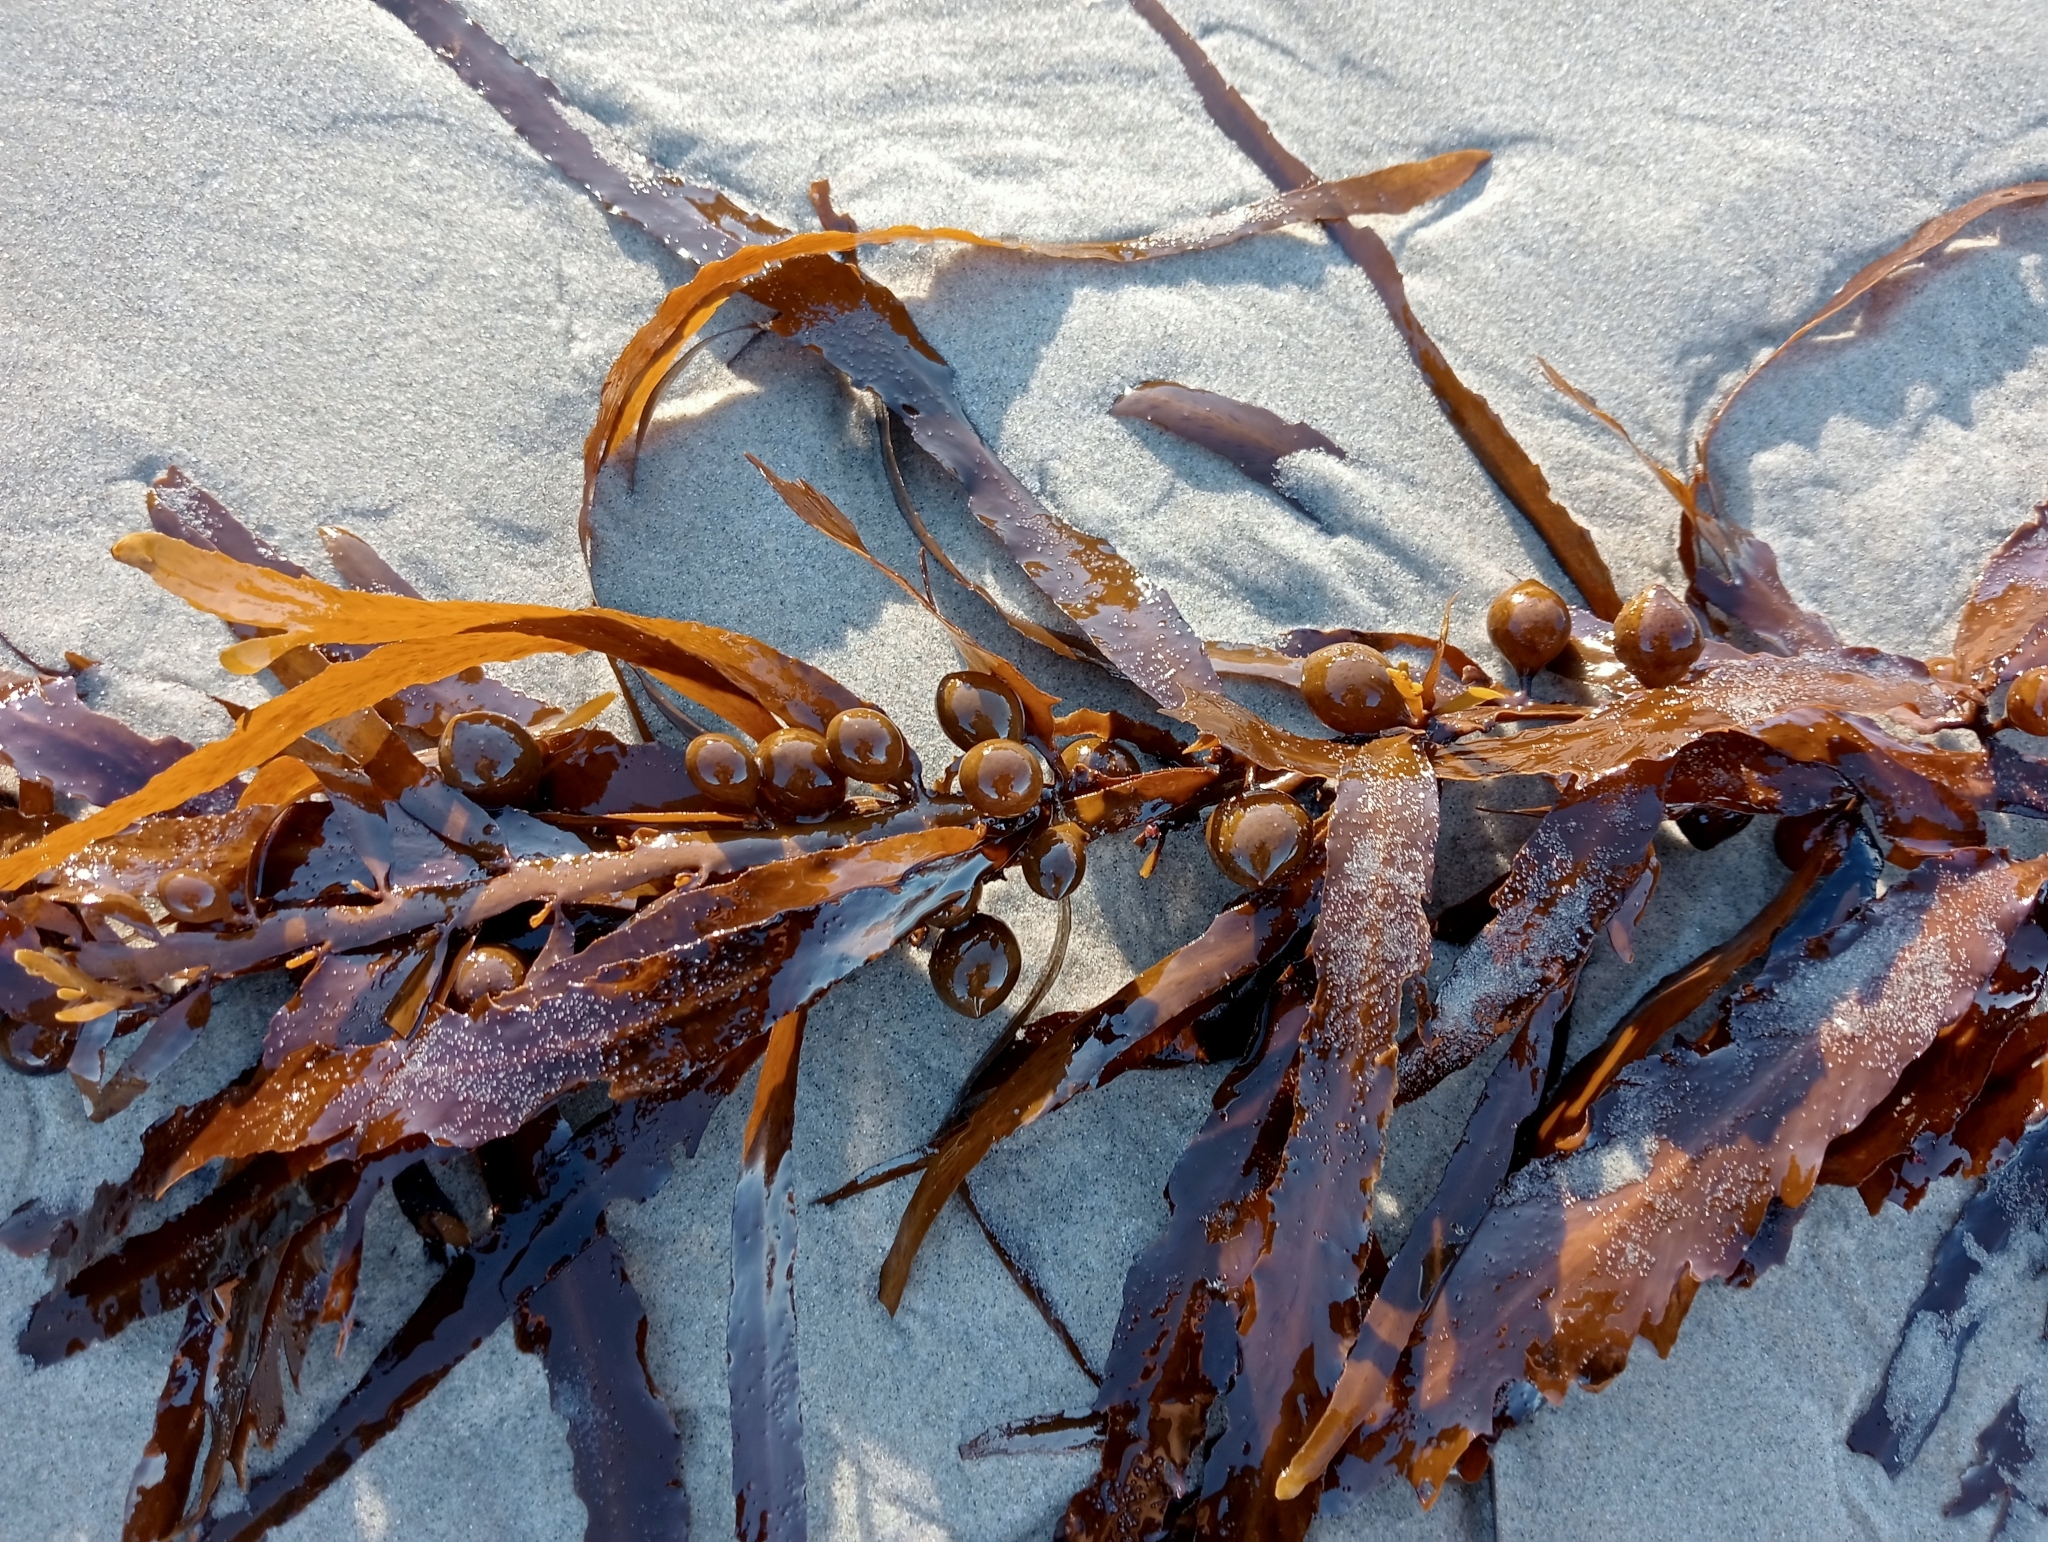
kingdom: Chromista
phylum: Ochrophyta
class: Phaeophyceae
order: Fucales
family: Sargassaceae
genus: Sargassum
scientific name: Sargassum sinclairii
